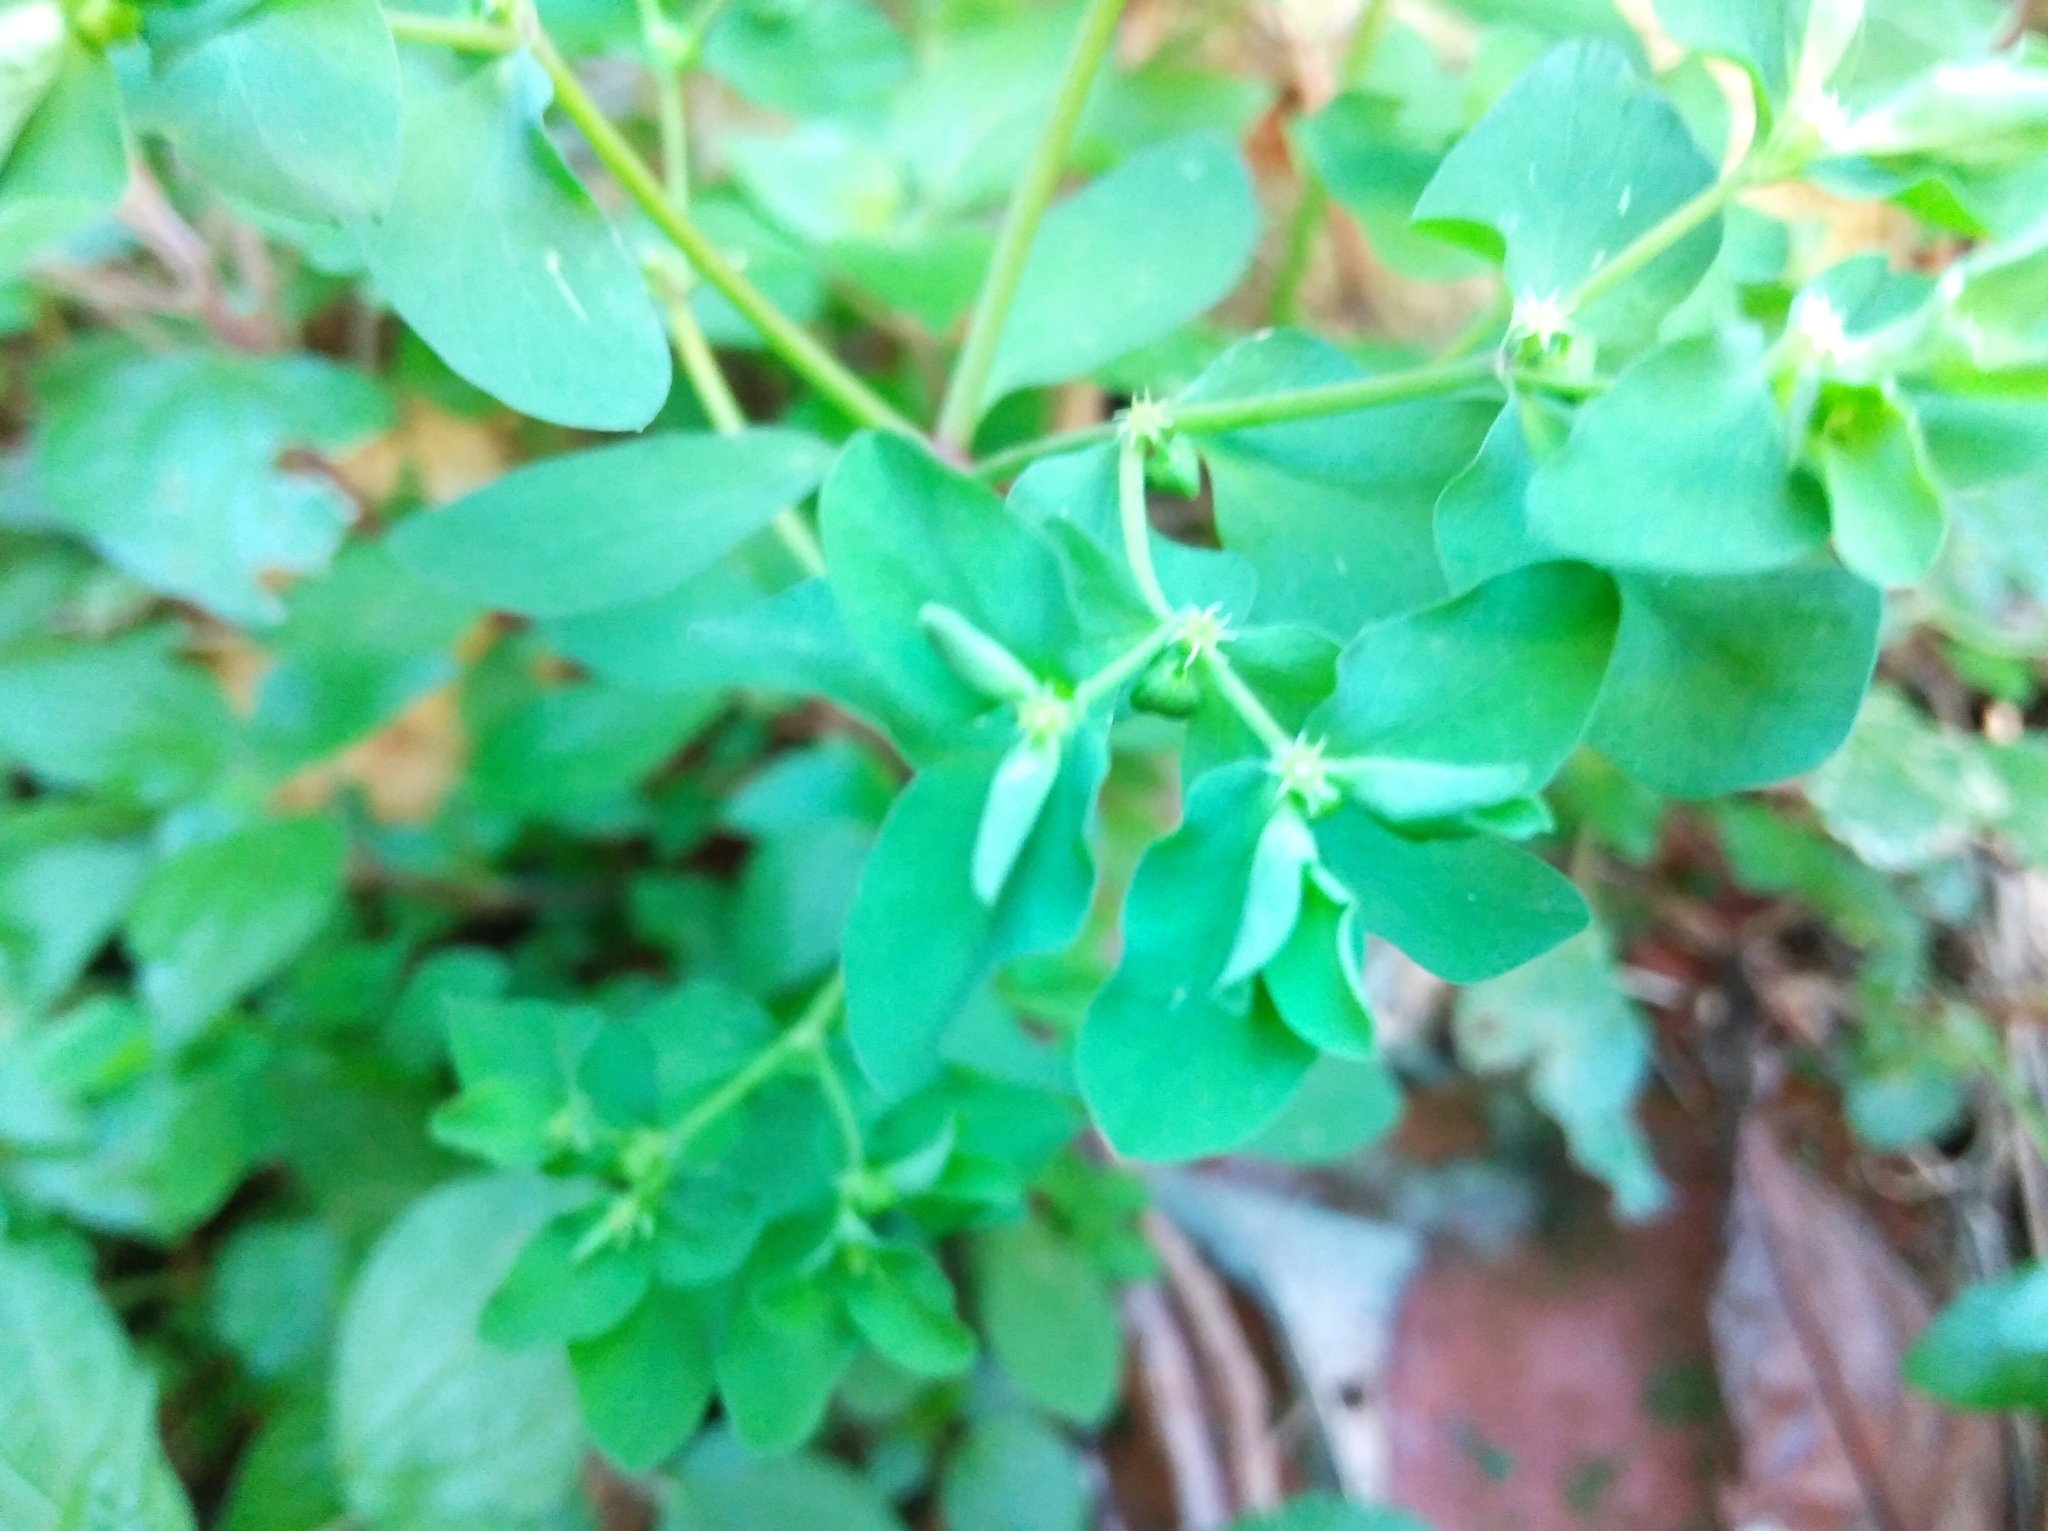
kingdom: Plantae
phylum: Tracheophyta
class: Magnoliopsida
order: Malpighiales
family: Euphorbiaceae
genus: Euphorbia
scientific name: Euphorbia peplus
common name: Petty spurge
